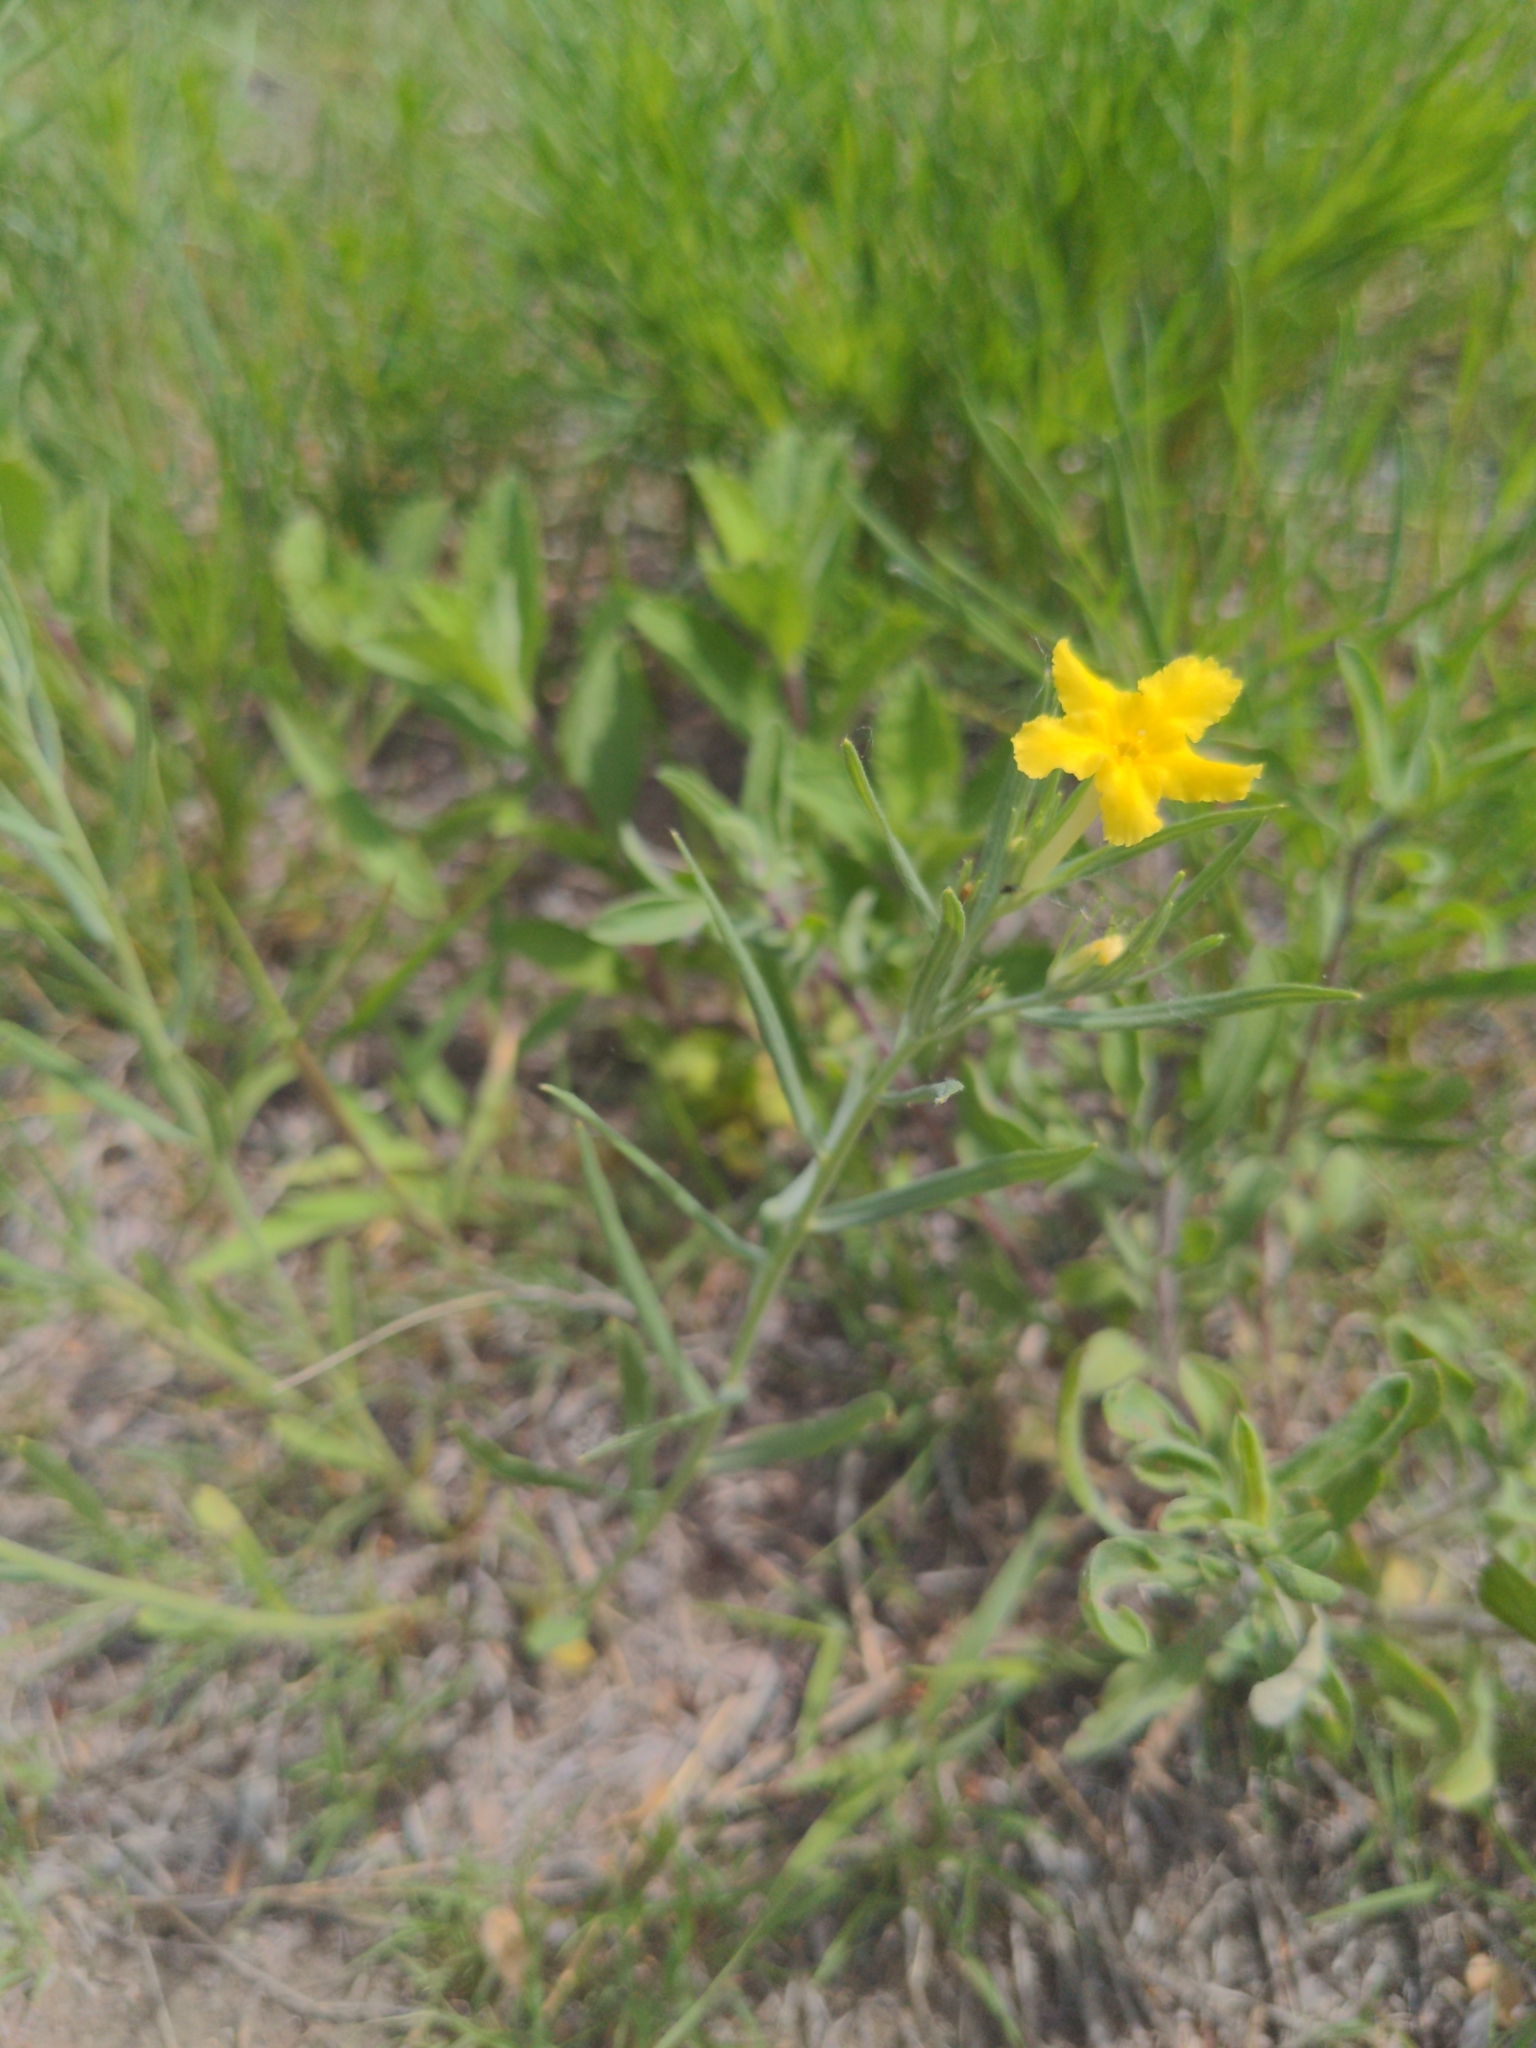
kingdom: Plantae
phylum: Tracheophyta
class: Magnoliopsida
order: Boraginales
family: Boraginaceae
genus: Lithospermum
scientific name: Lithospermum incisum
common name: Fringed gromwell
